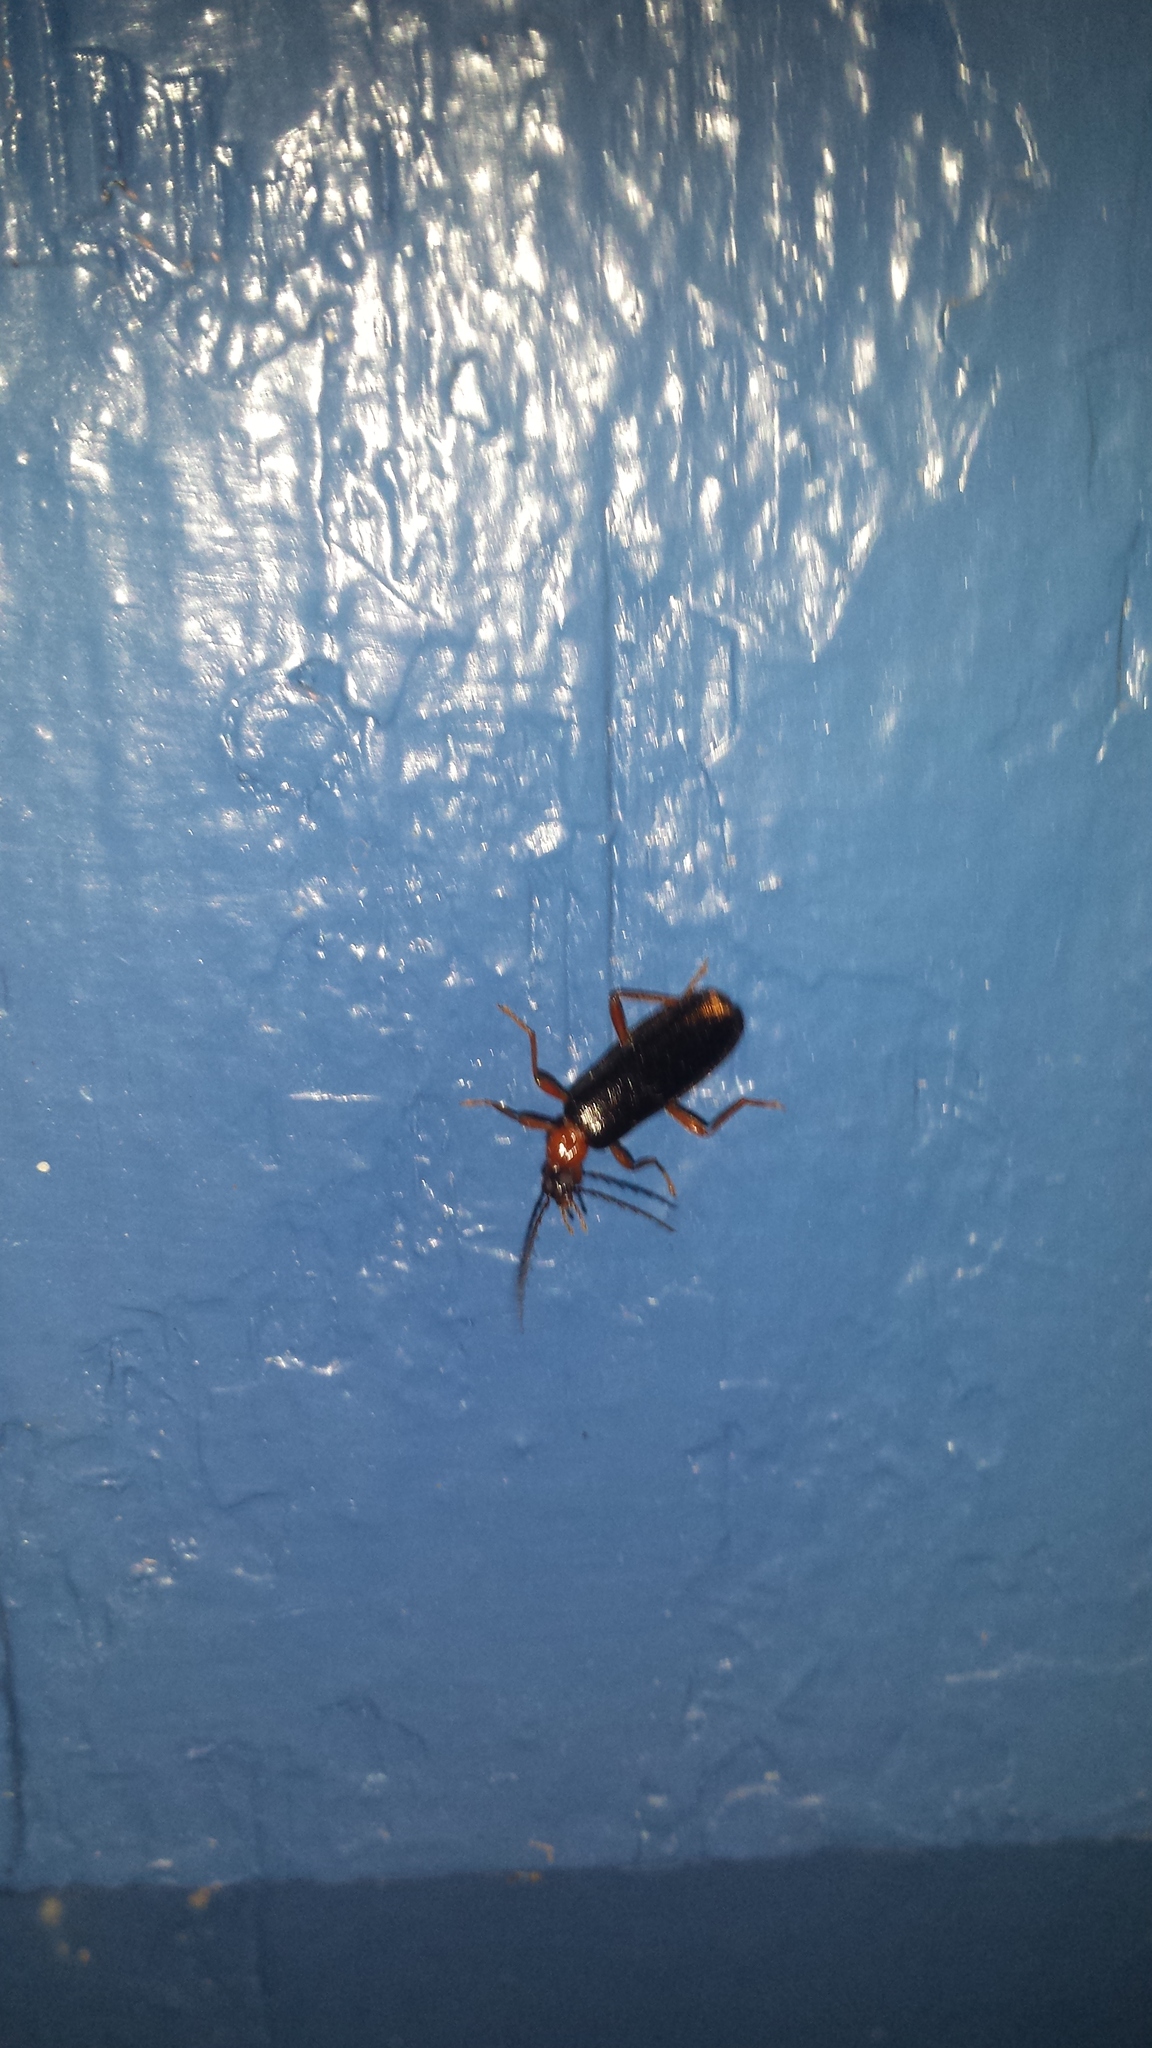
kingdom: Animalia
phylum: Arthropoda
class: Insecta
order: Coleoptera
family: Pyrochroidae
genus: Dendroides
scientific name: Dendroides canadensis
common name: Canada fire-colored beetle
